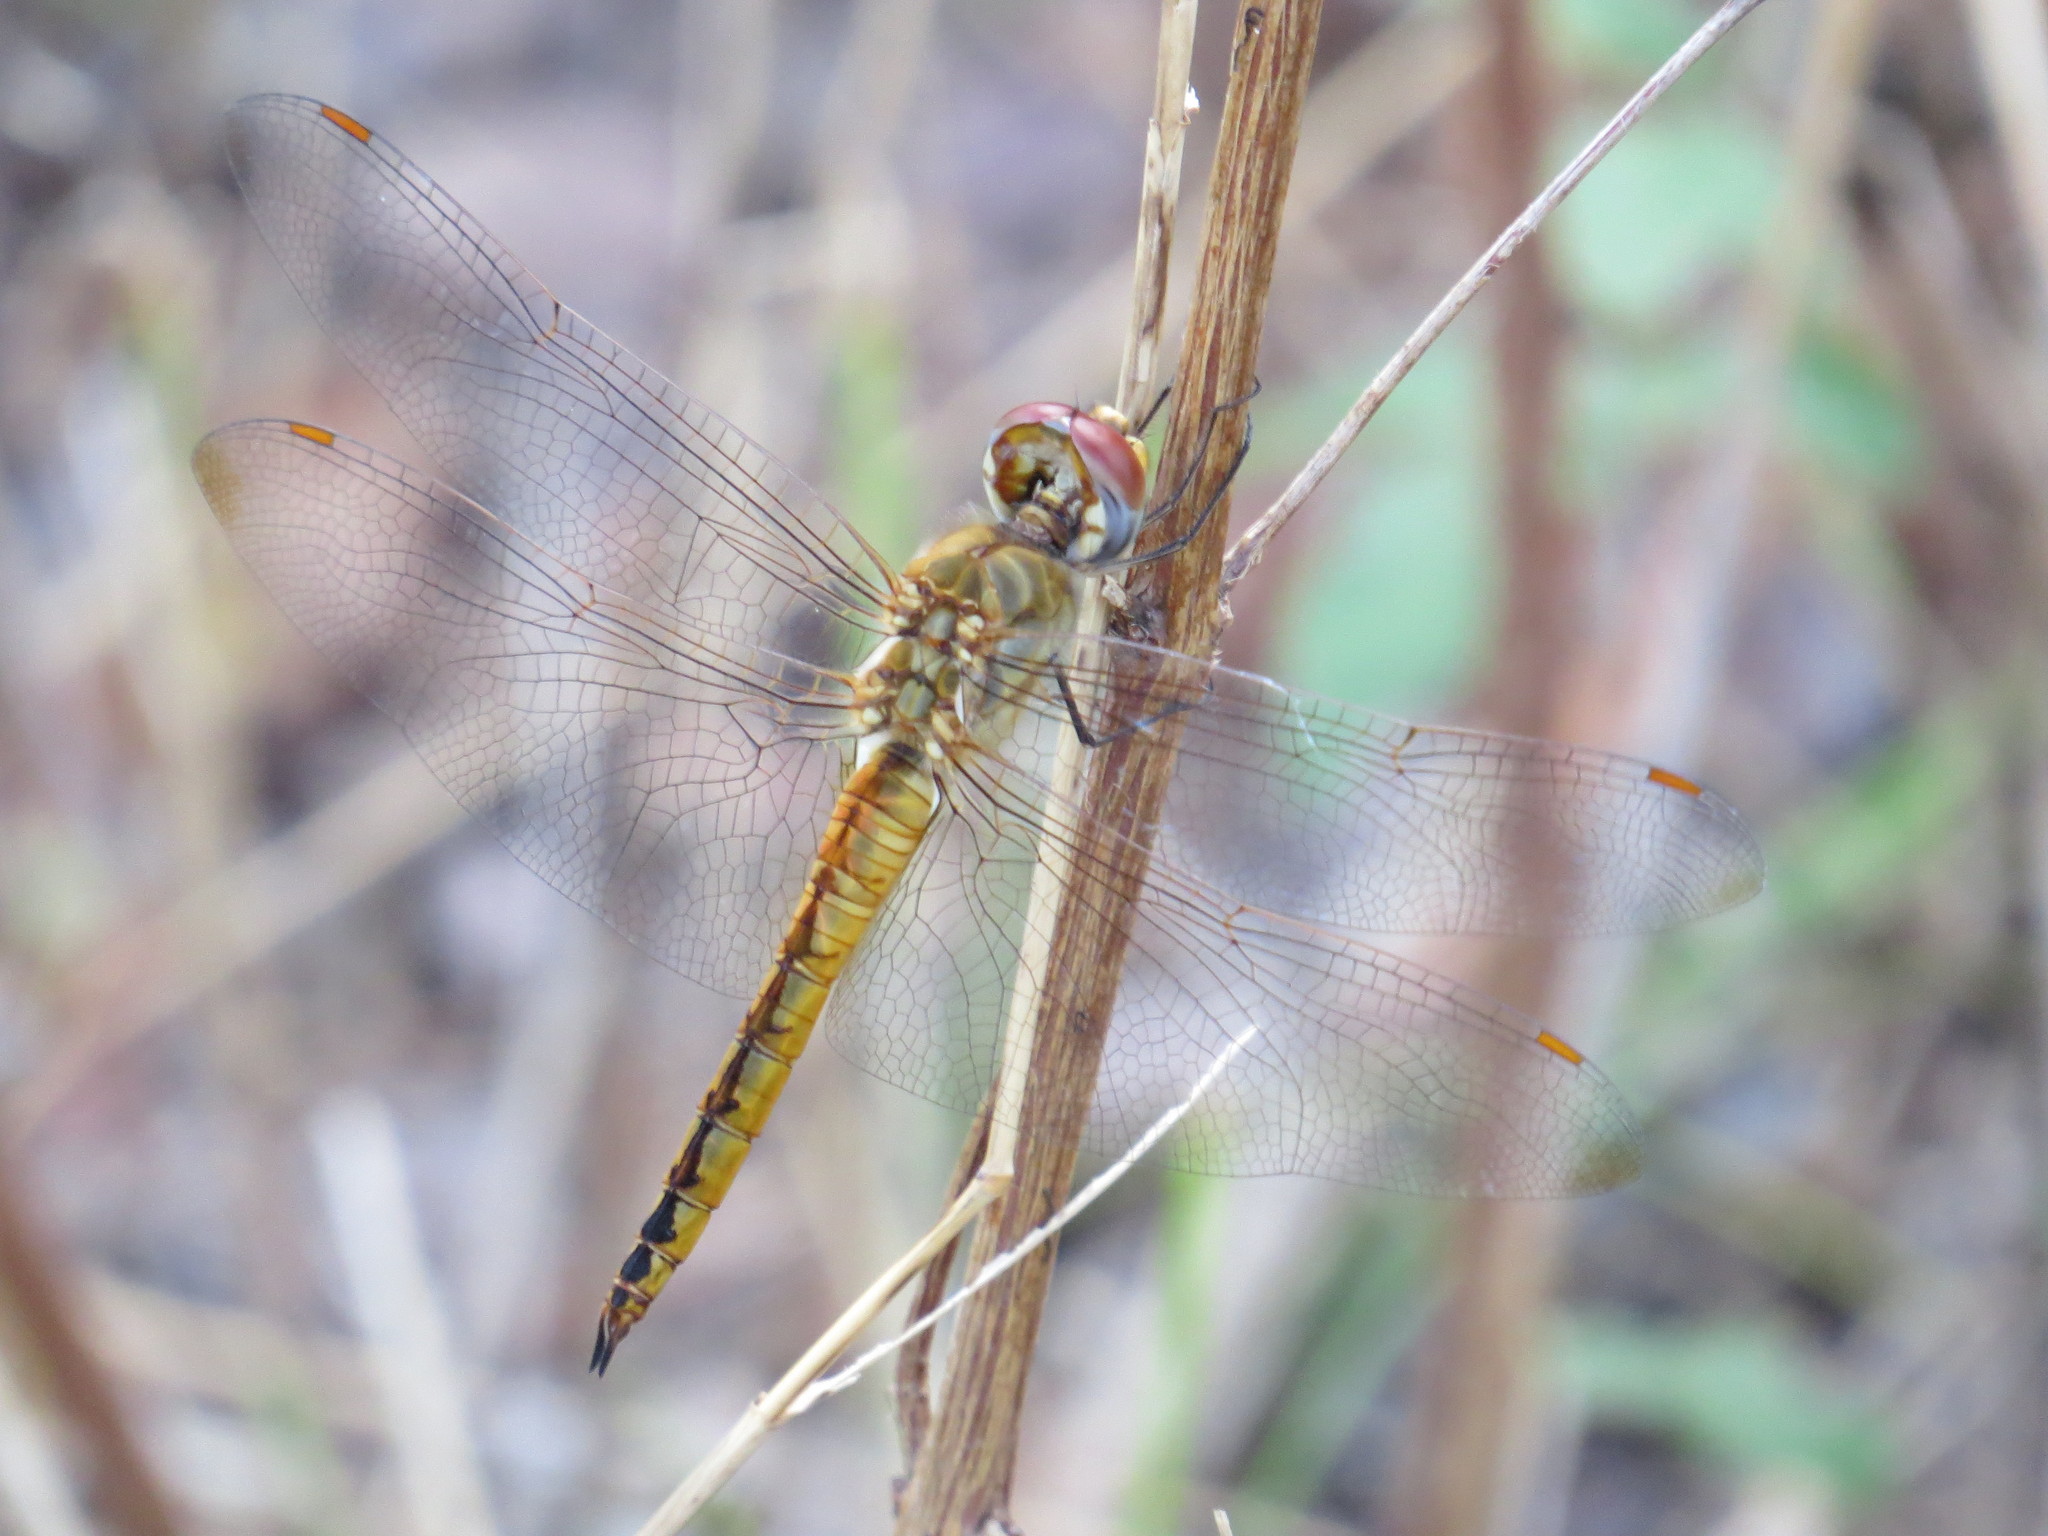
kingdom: Animalia
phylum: Arthropoda
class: Insecta
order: Odonata
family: Libellulidae
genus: Pantala
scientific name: Pantala flavescens
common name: Wandering glider
